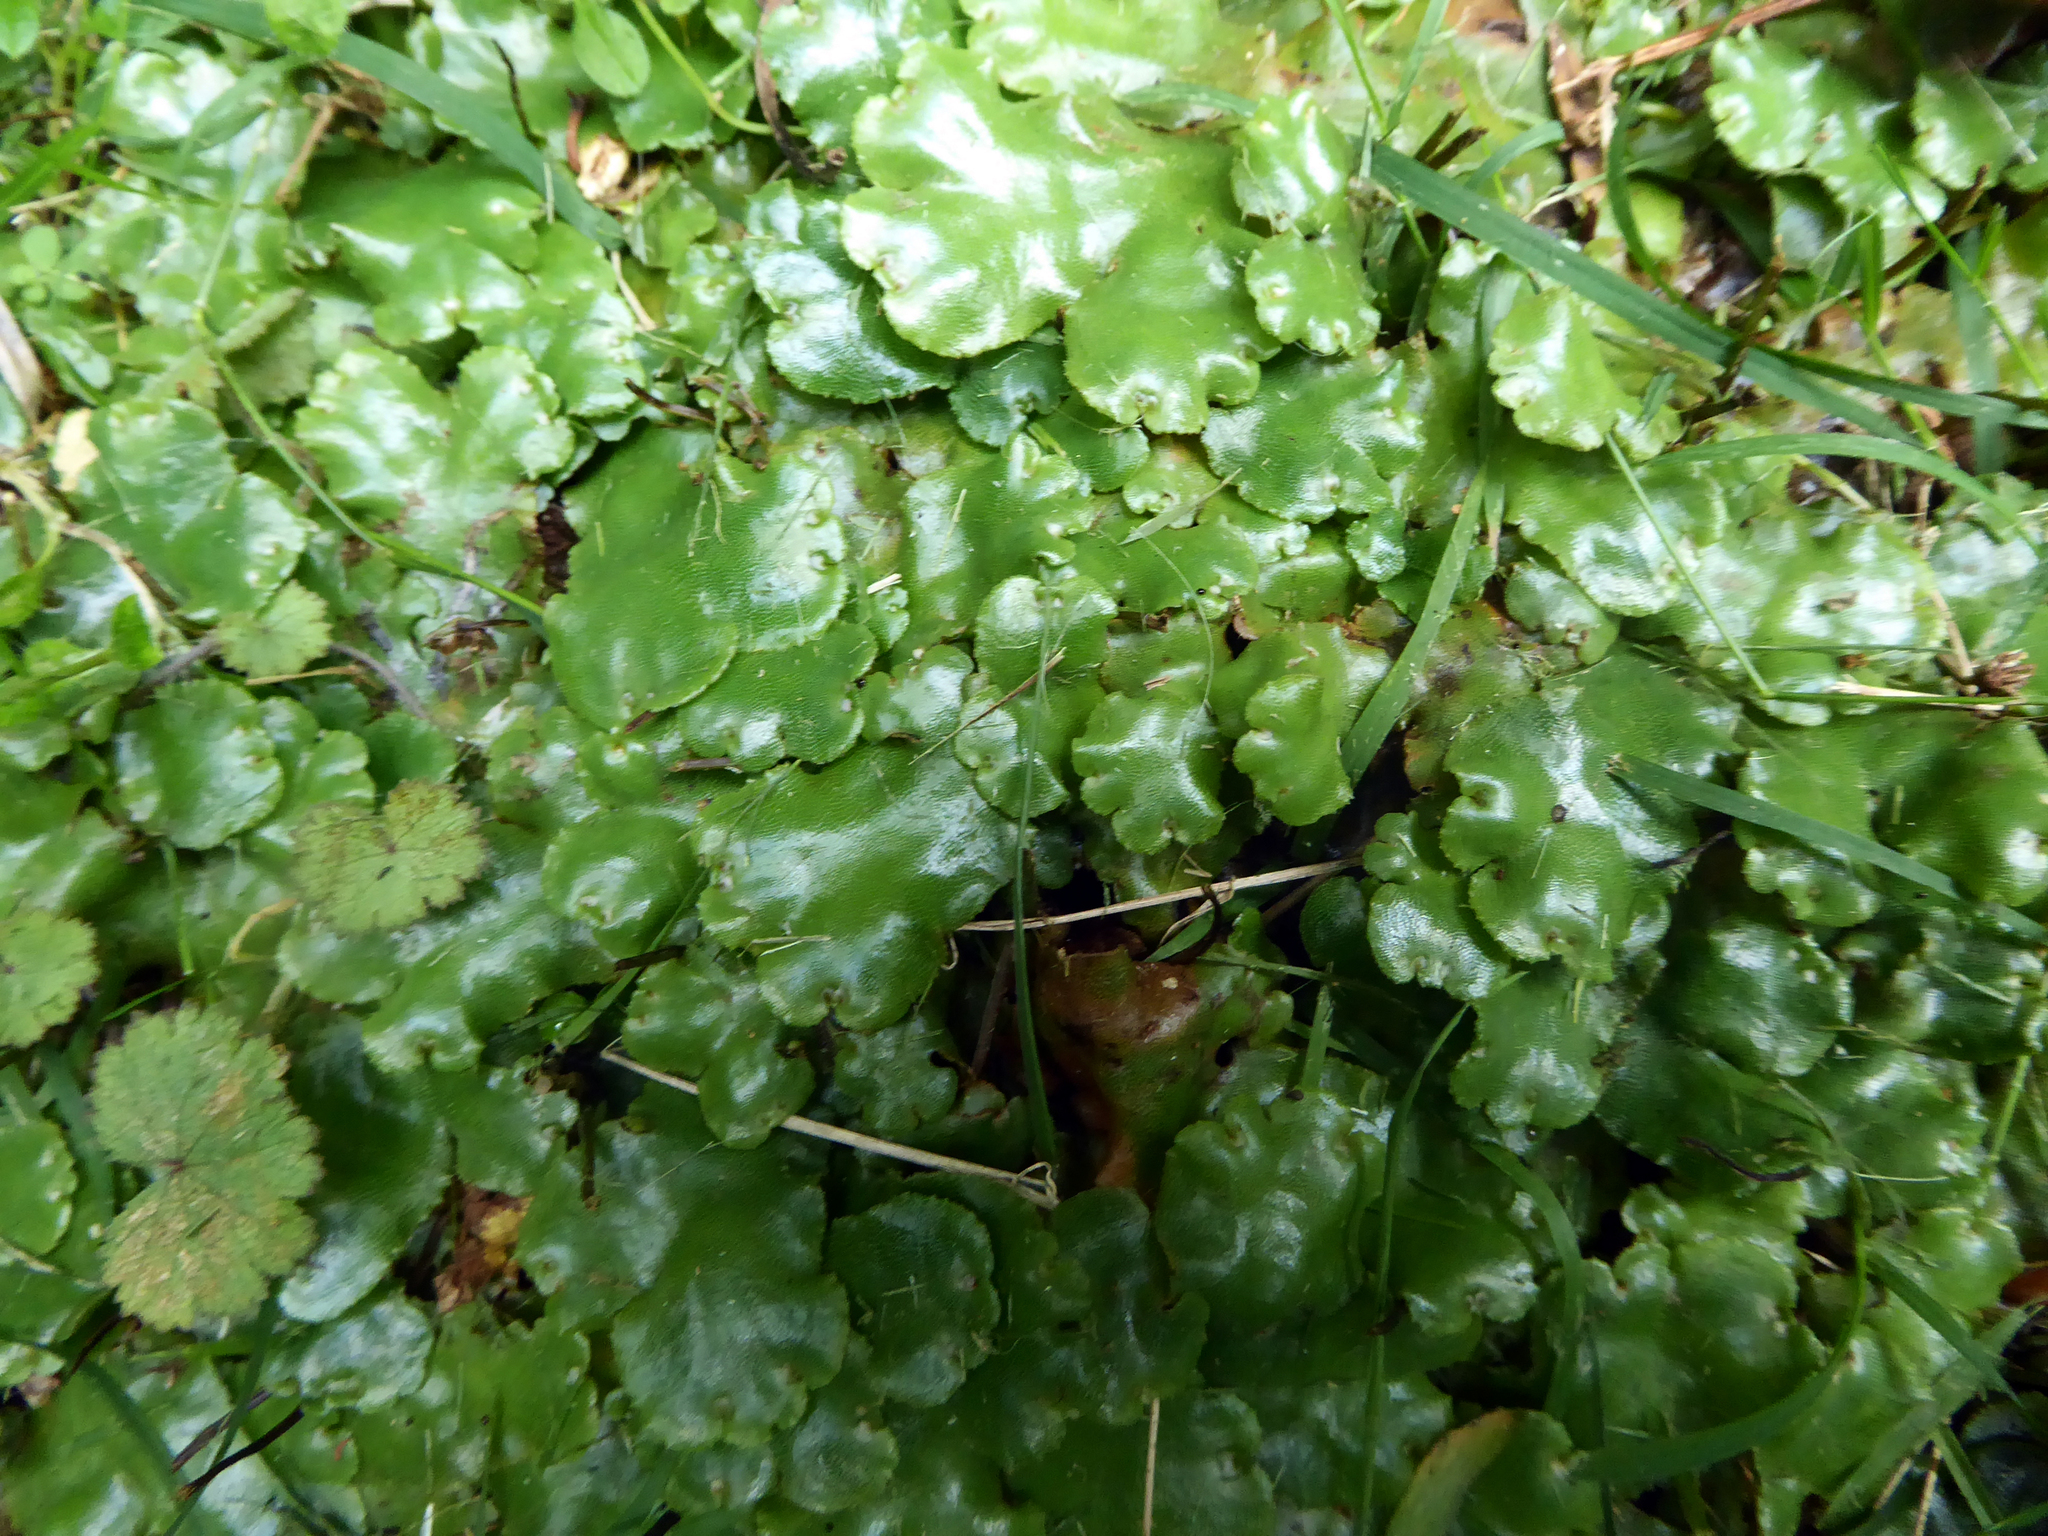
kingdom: Plantae
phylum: Marchantiophyta
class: Marchantiopsida
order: Marchantiales
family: Marchantiaceae
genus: Marchantia
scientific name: Marchantia berteroana
